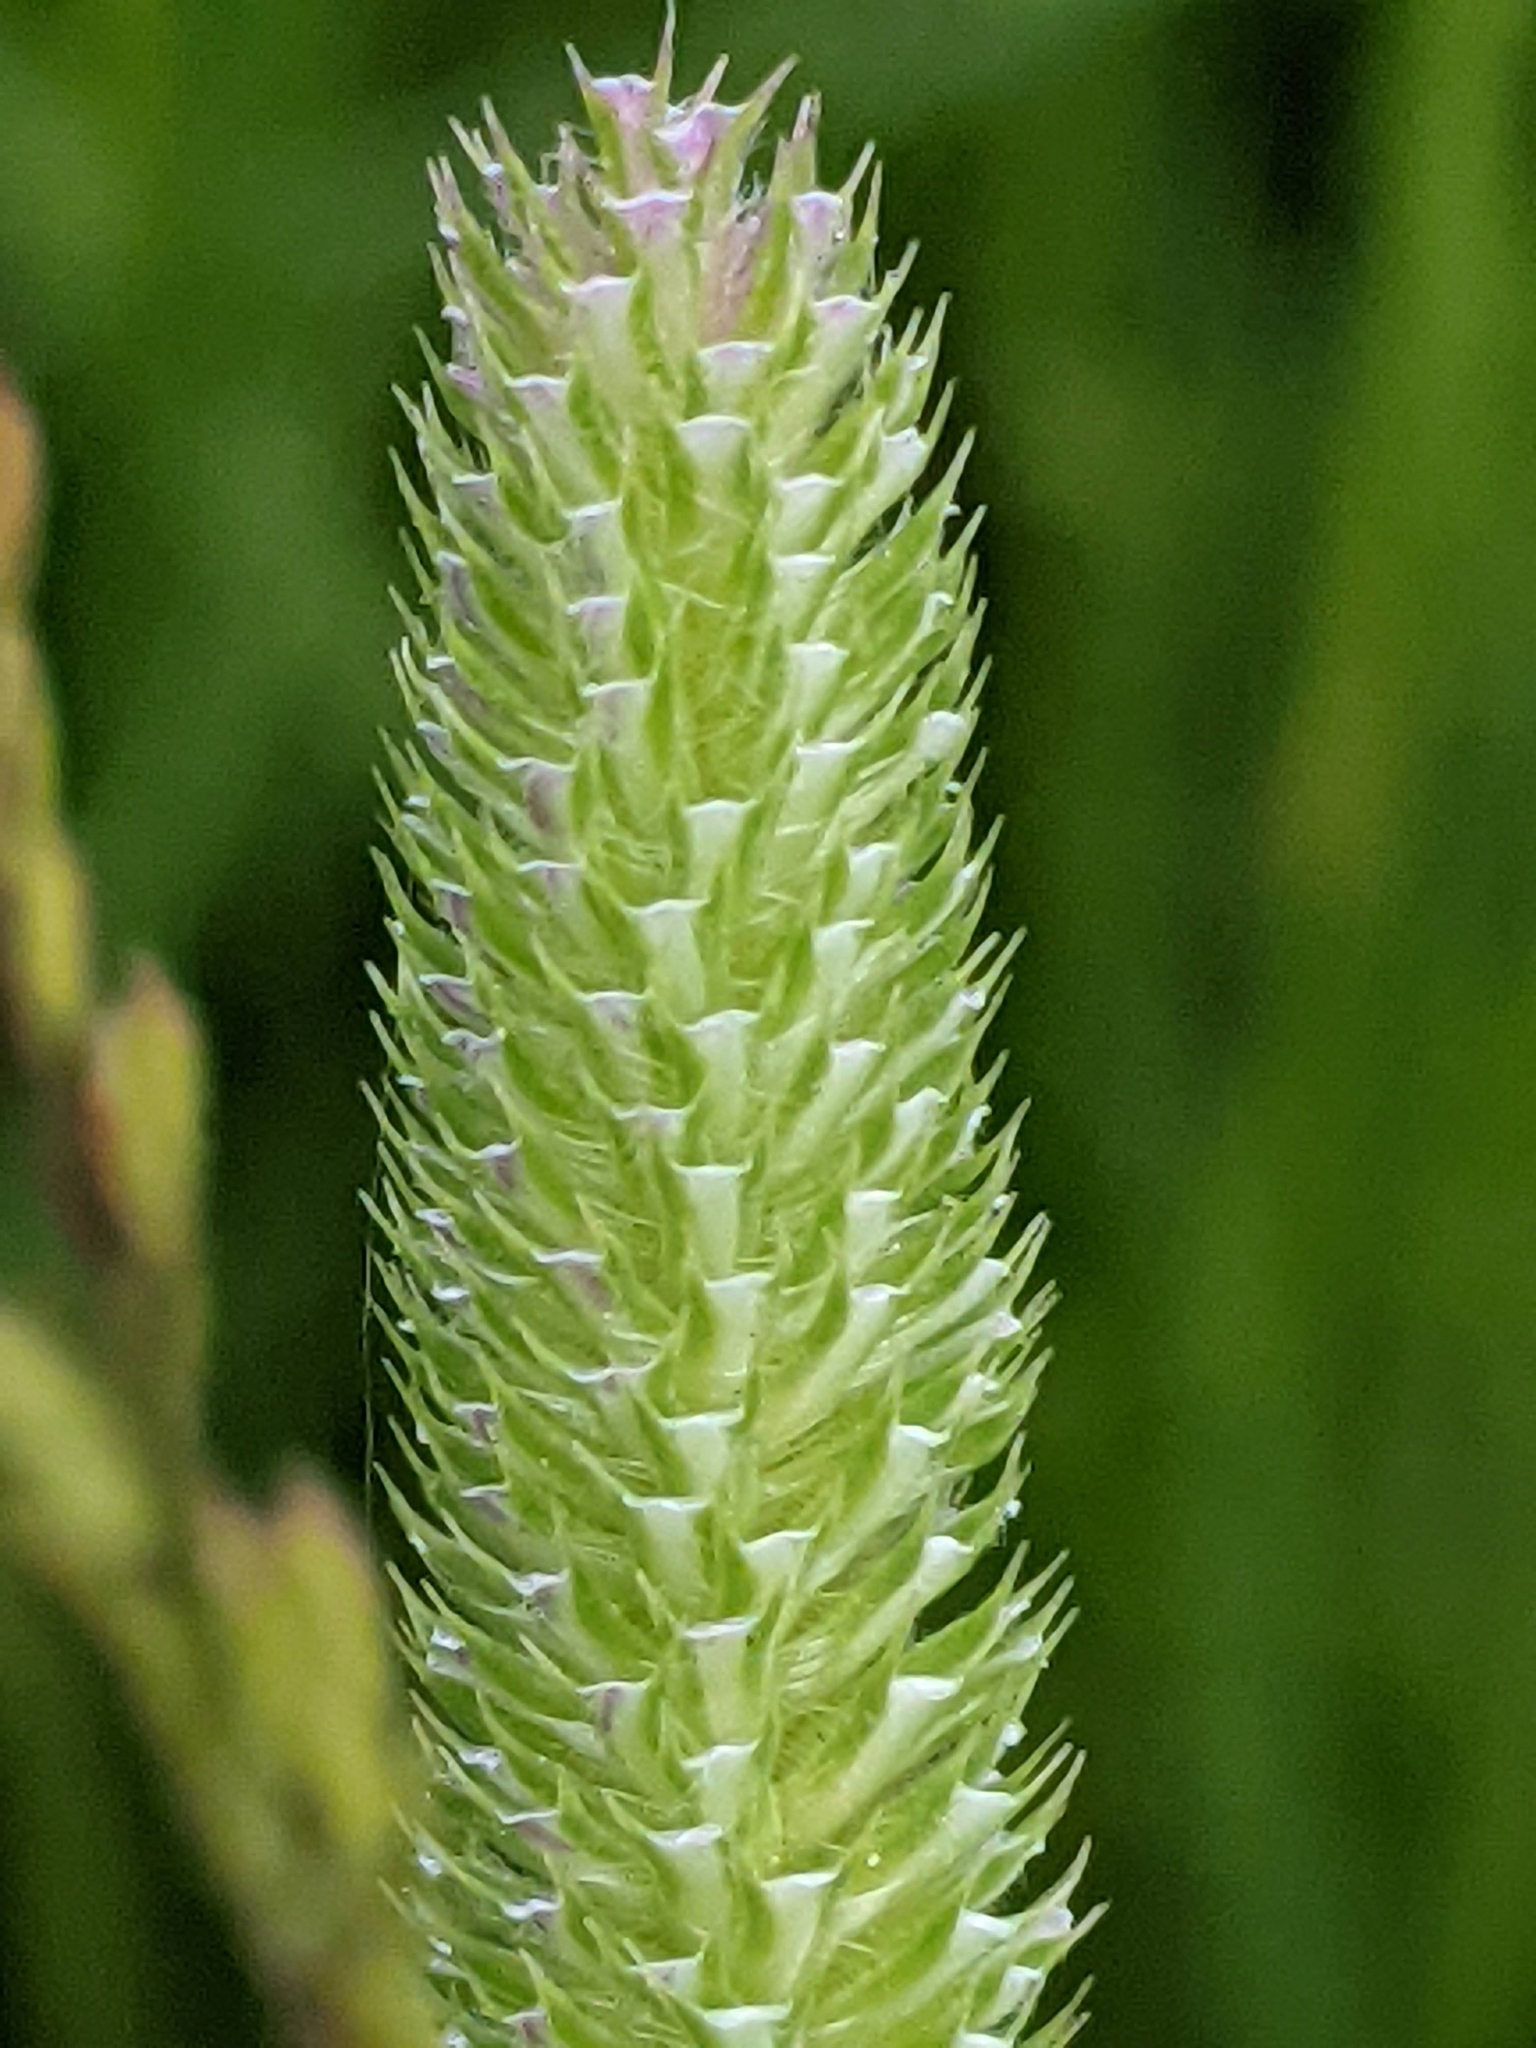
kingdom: Plantae
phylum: Tracheophyta
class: Liliopsida
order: Poales
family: Poaceae
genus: Phleum
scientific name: Phleum bertolonii
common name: Smaller cat's-tail
